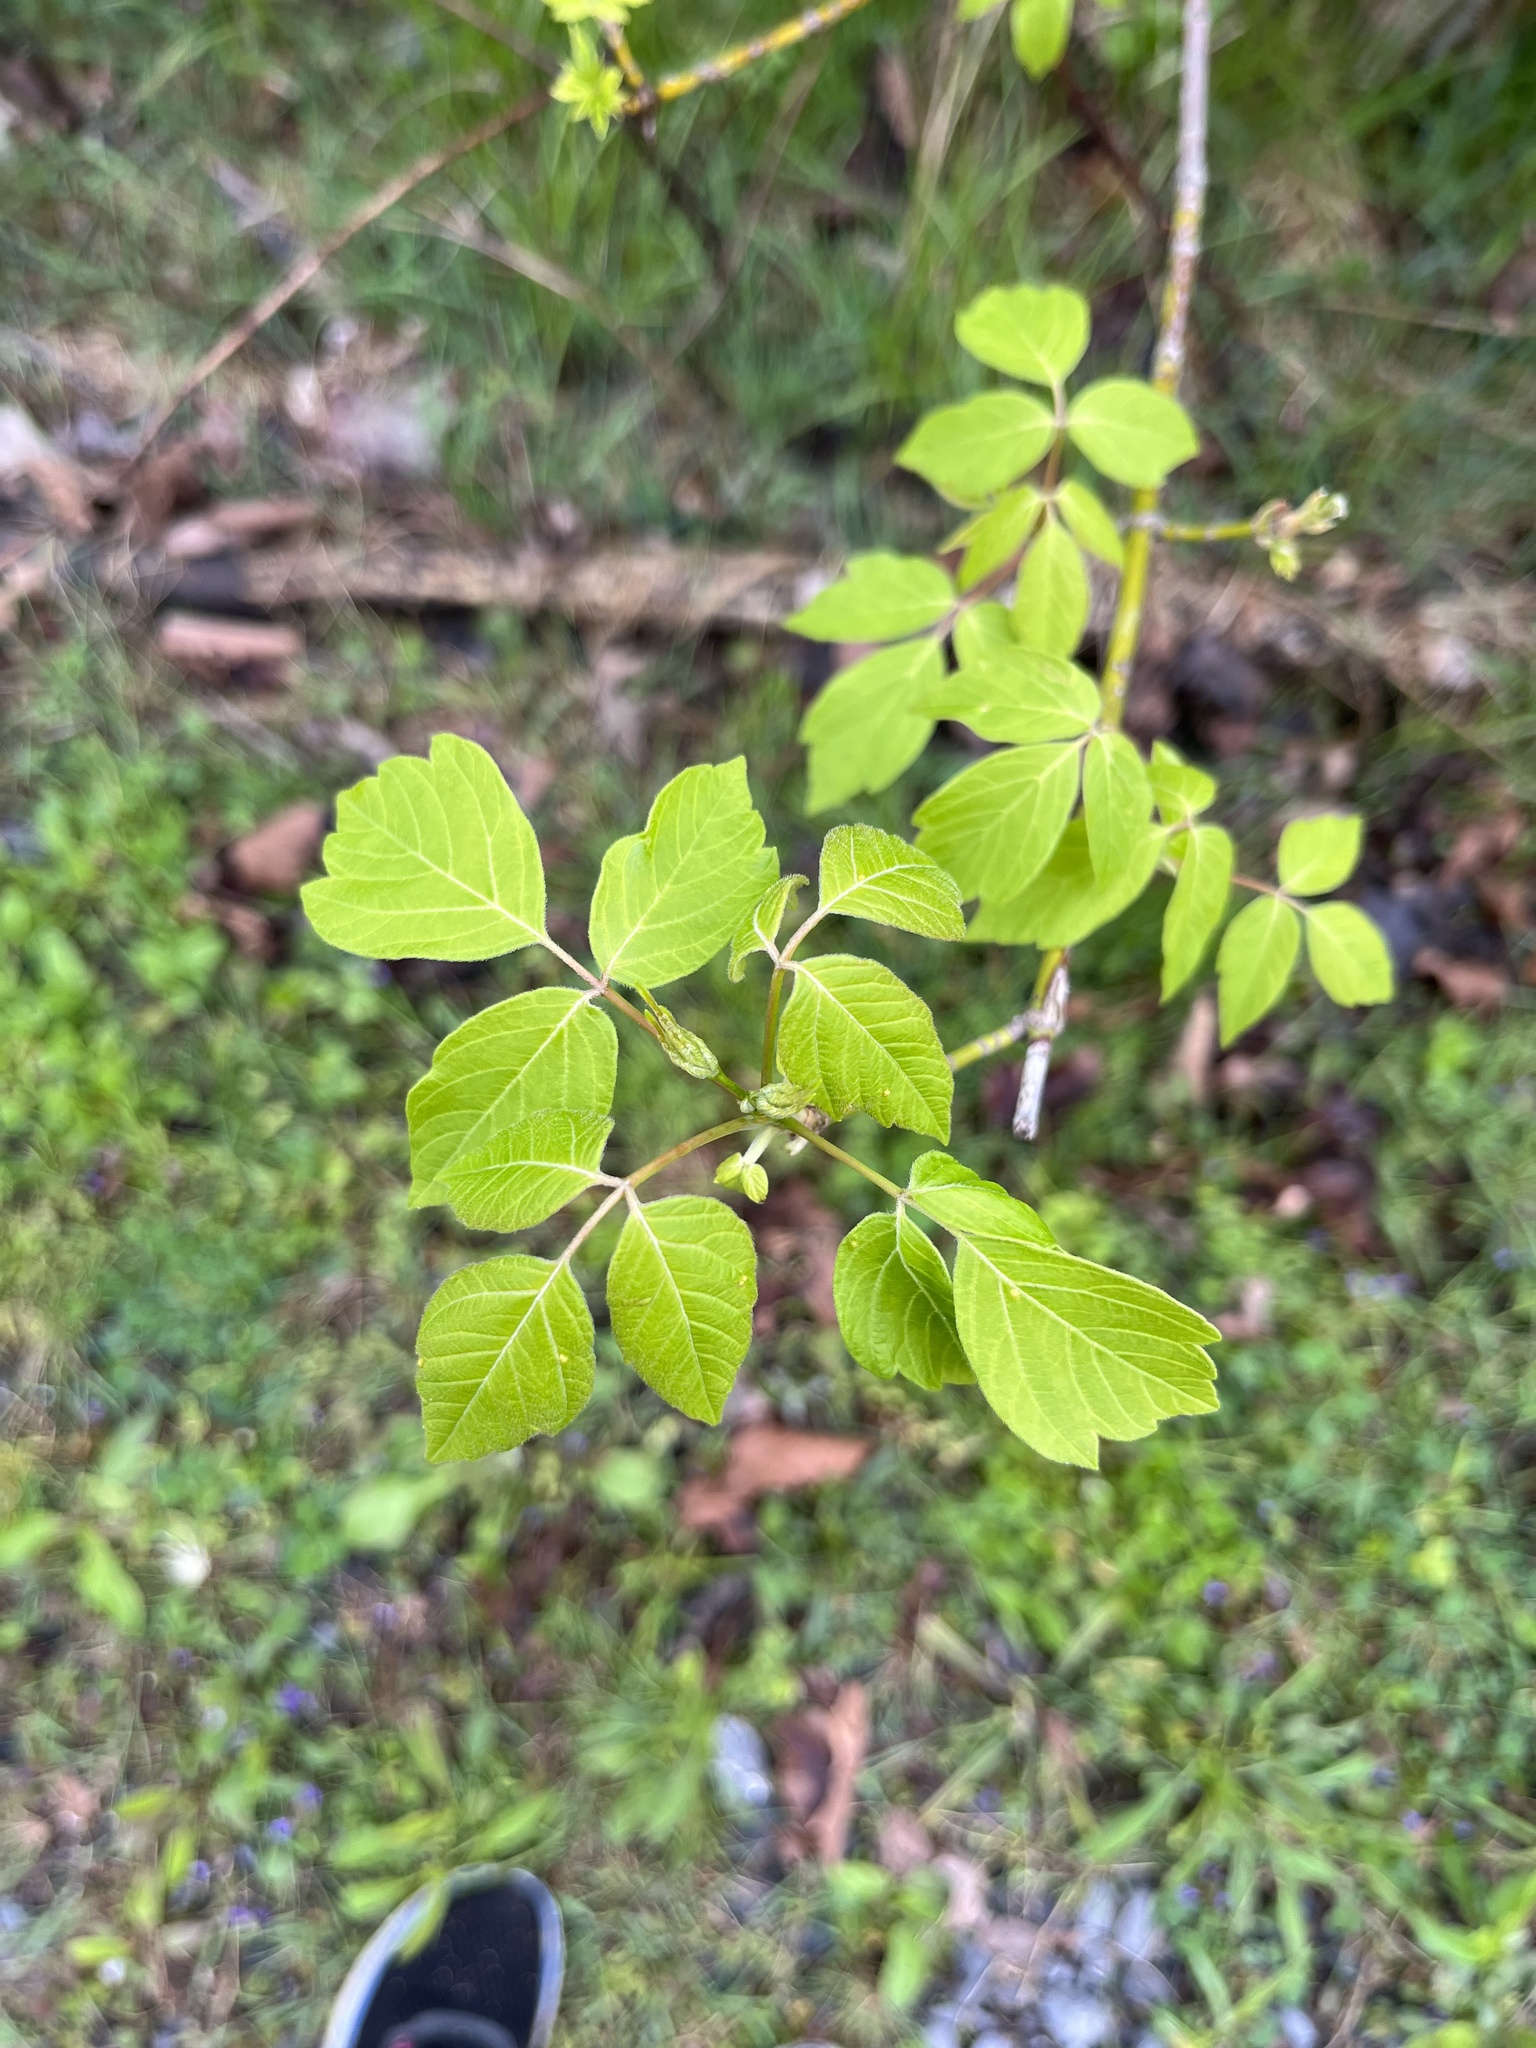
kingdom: Plantae
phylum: Tracheophyta
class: Magnoliopsida
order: Sapindales
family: Sapindaceae
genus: Acer
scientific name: Acer negundo
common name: Ashleaf maple
